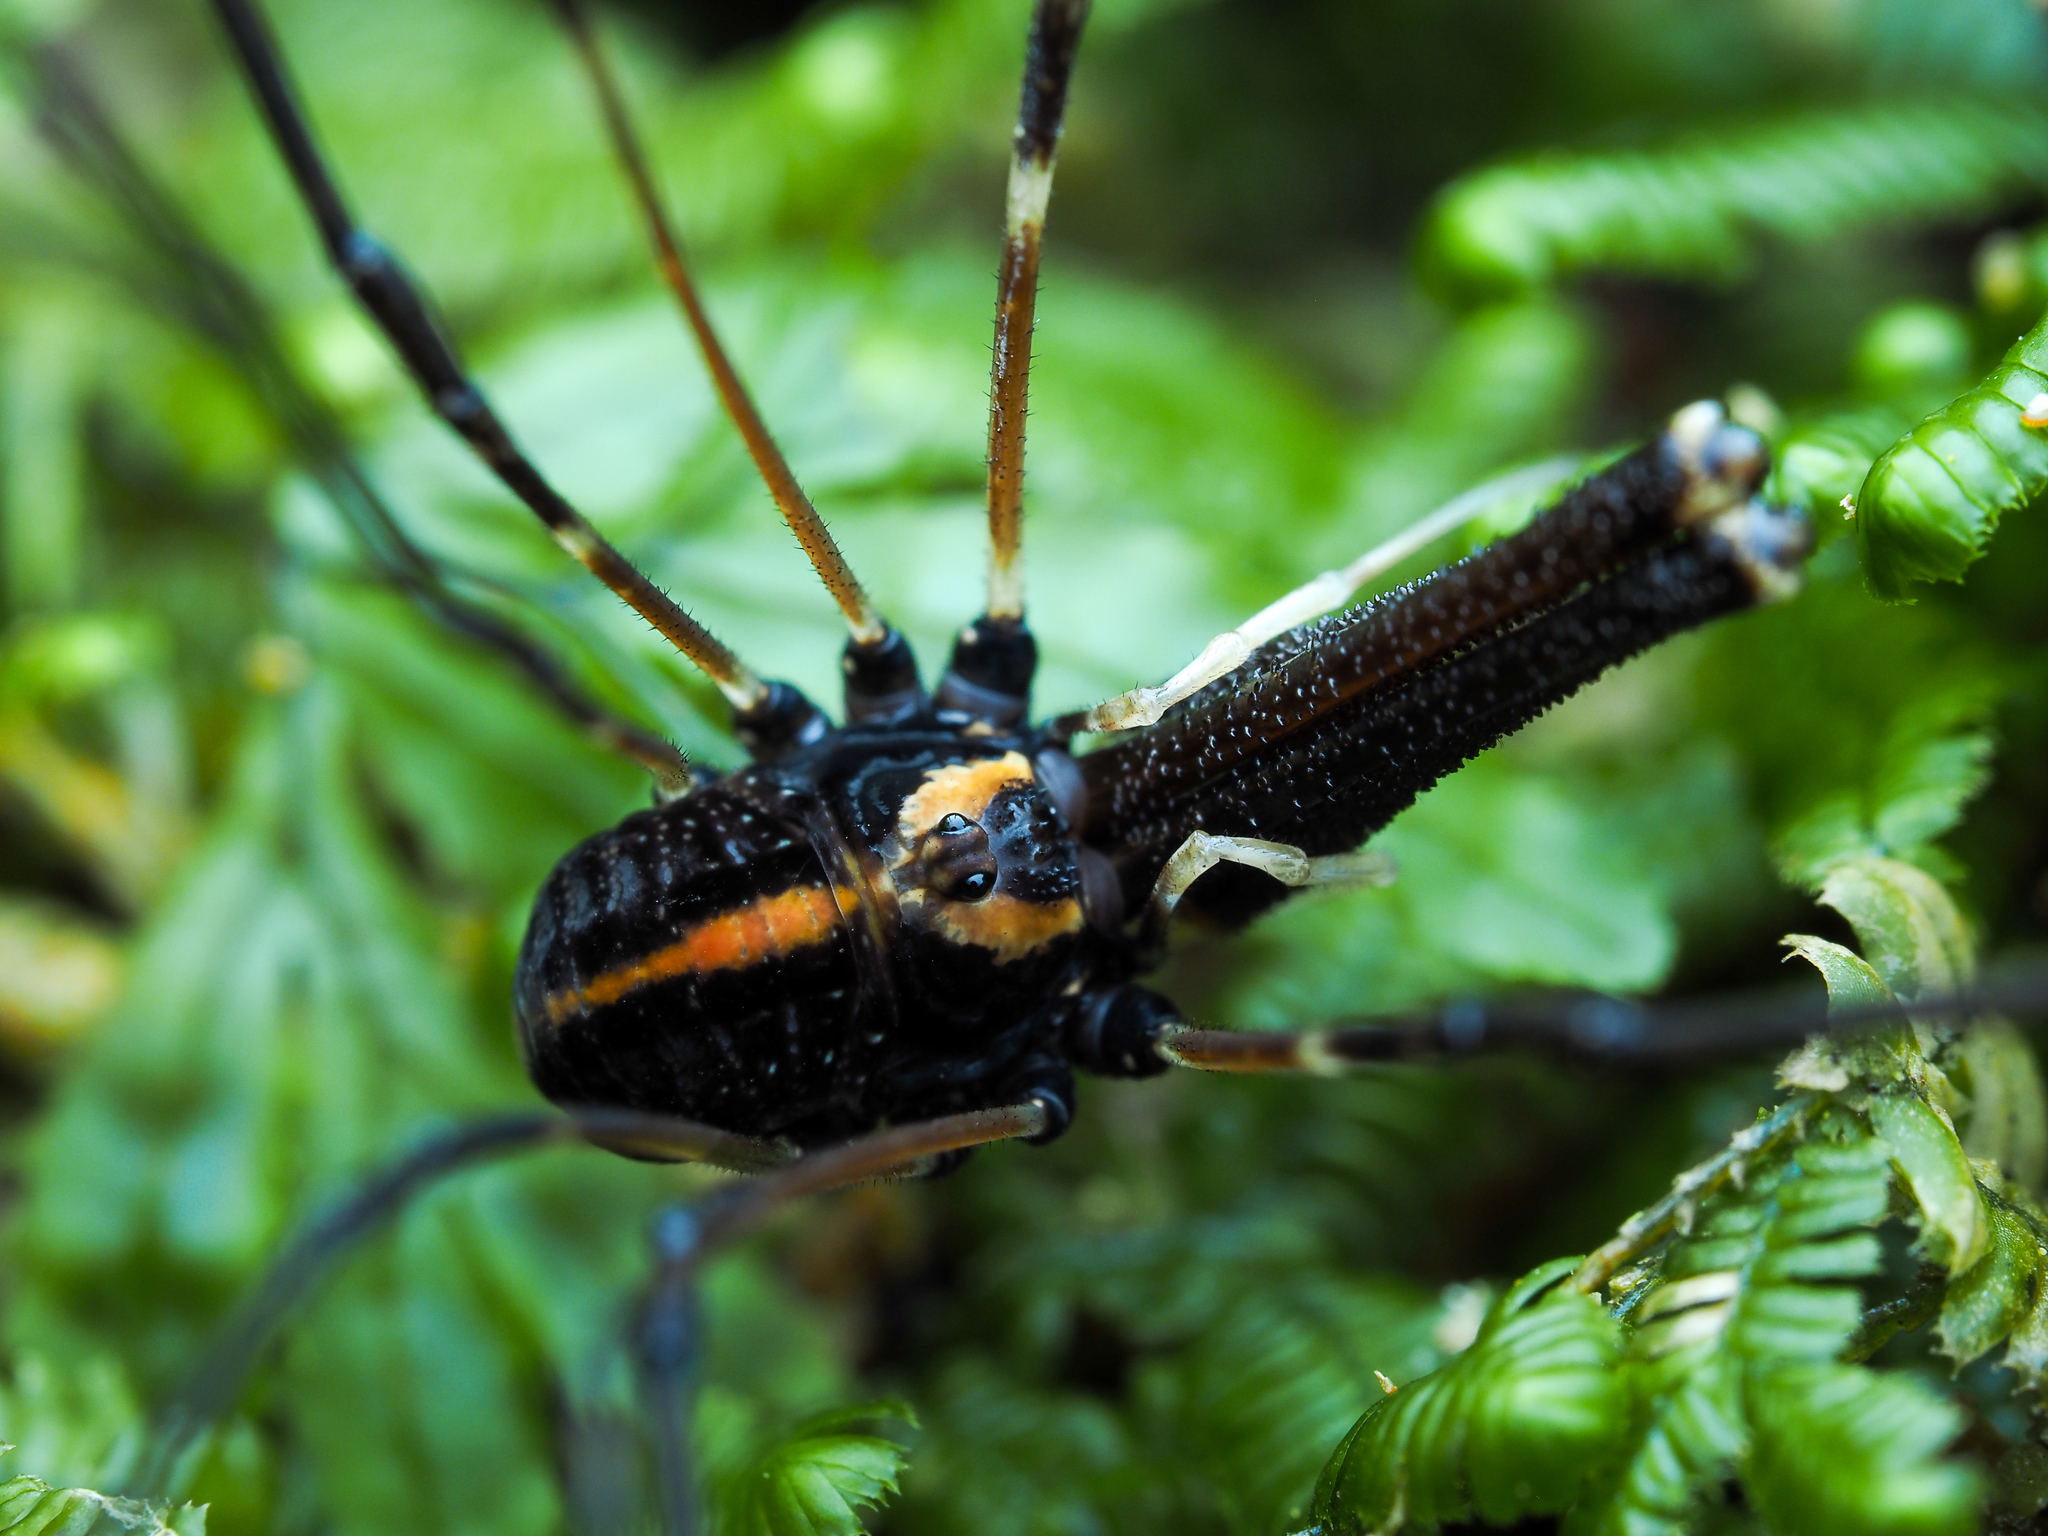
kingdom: Animalia
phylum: Arthropoda
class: Arachnida
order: Opiliones
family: Neopilionidae
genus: Forsteropsalis
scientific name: Forsteropsalis pureora
